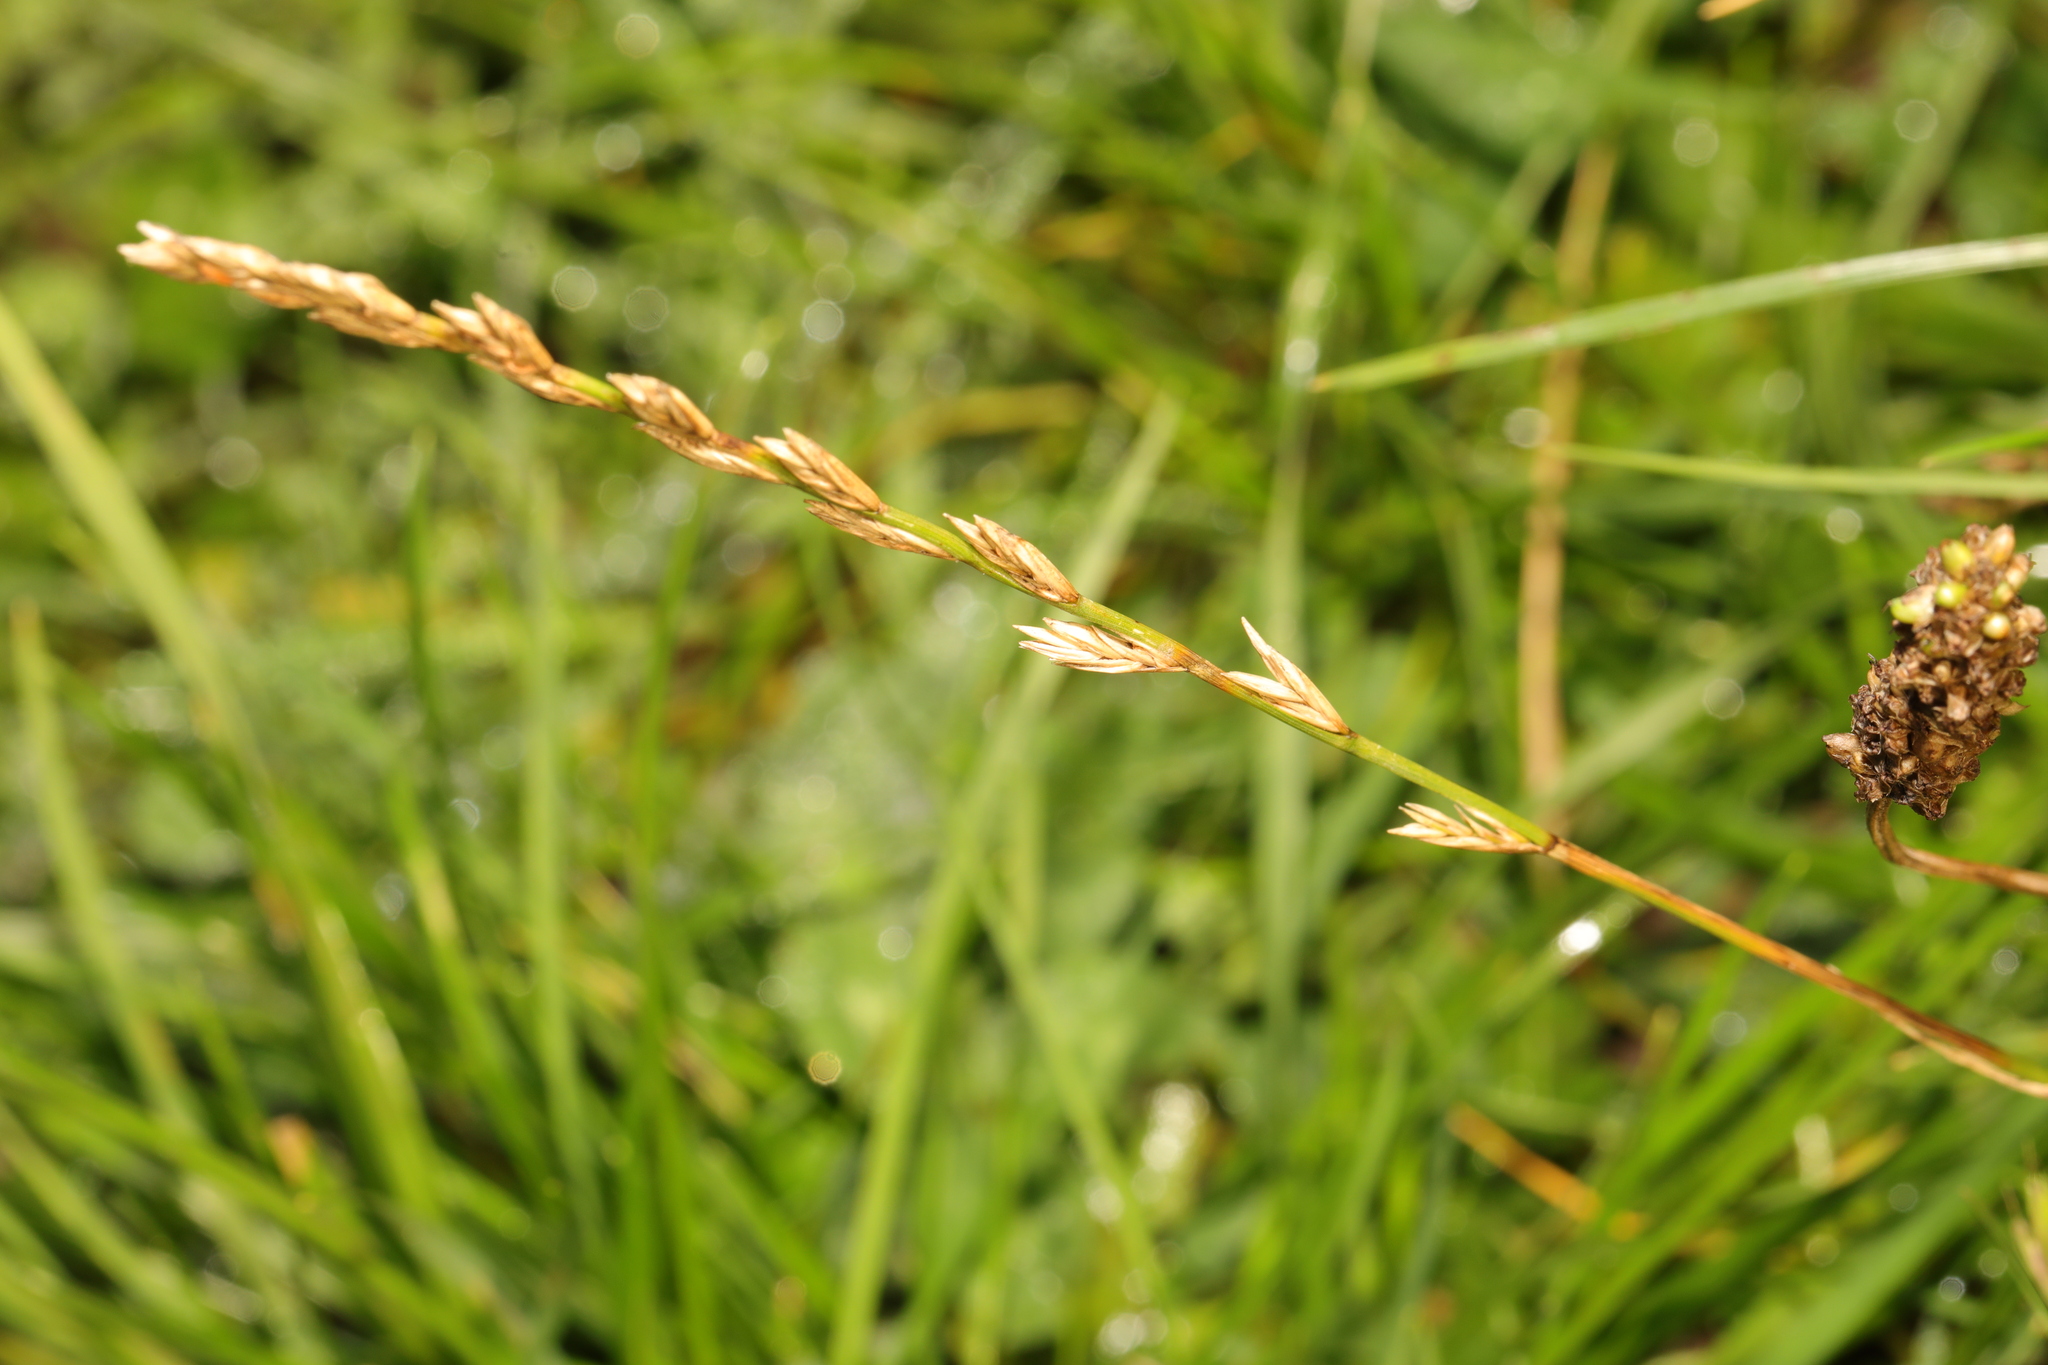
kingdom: Plantae
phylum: Tracheophyta
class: Liliopsida
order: Poales
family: Poaceae
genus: Lolium
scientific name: Lolium perenne
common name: Perennial ryegrass
